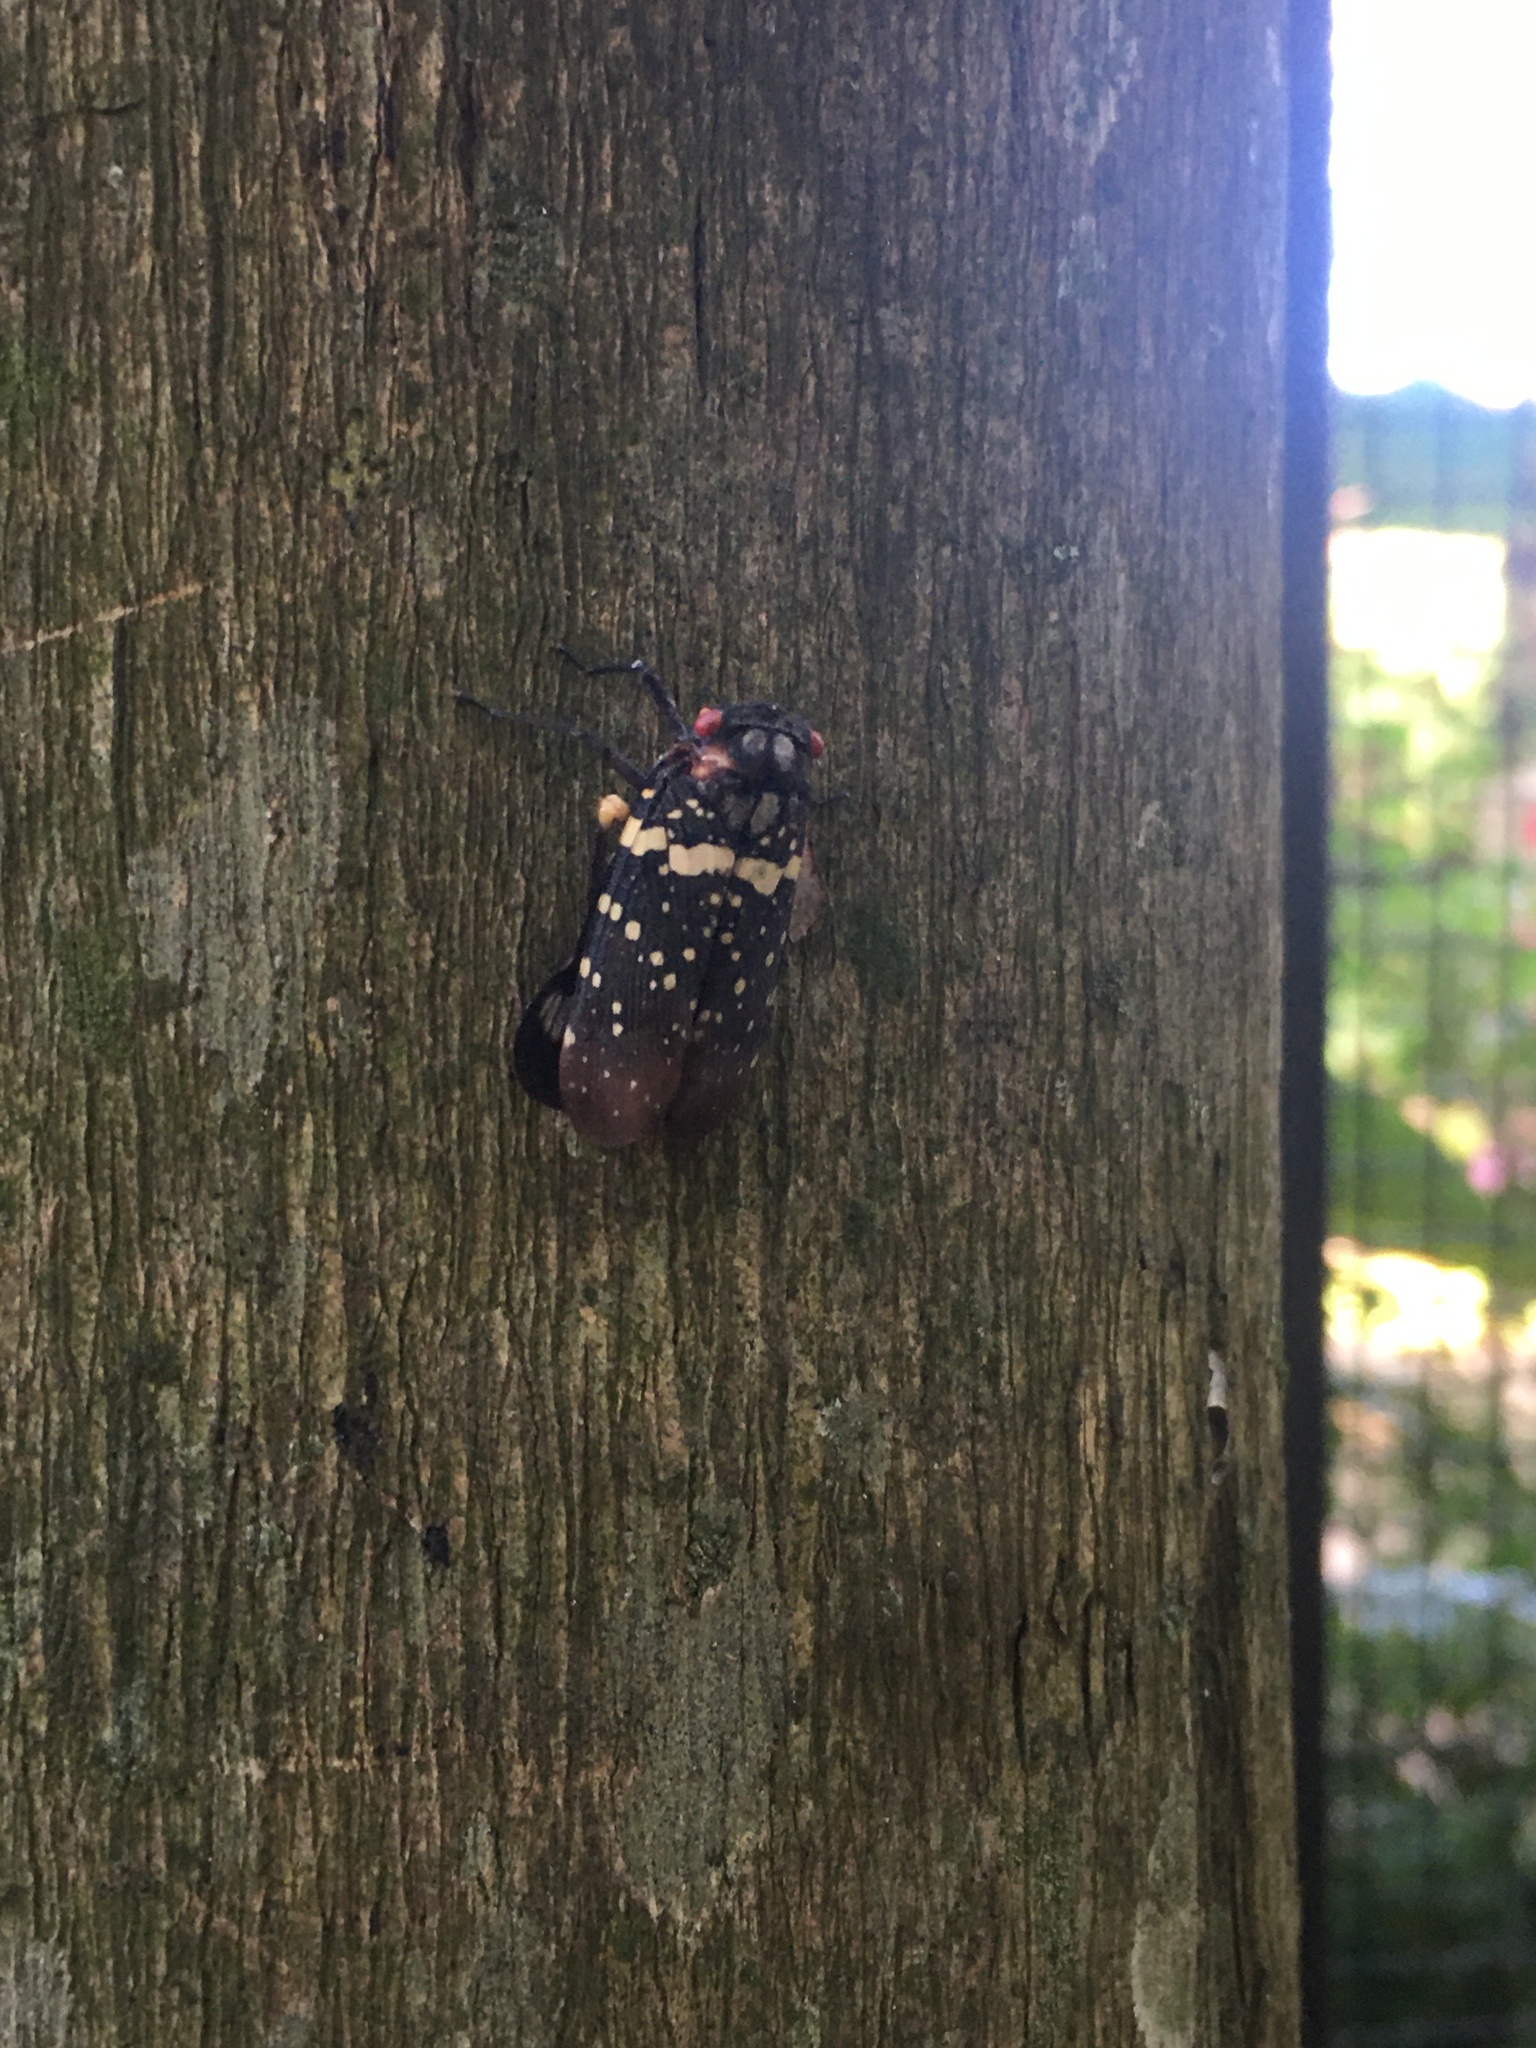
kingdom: Animalia
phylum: Arthropoda
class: Insecta
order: Hemiptera
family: Fulgoridae
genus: Acraephia
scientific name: Acraephia opaca
